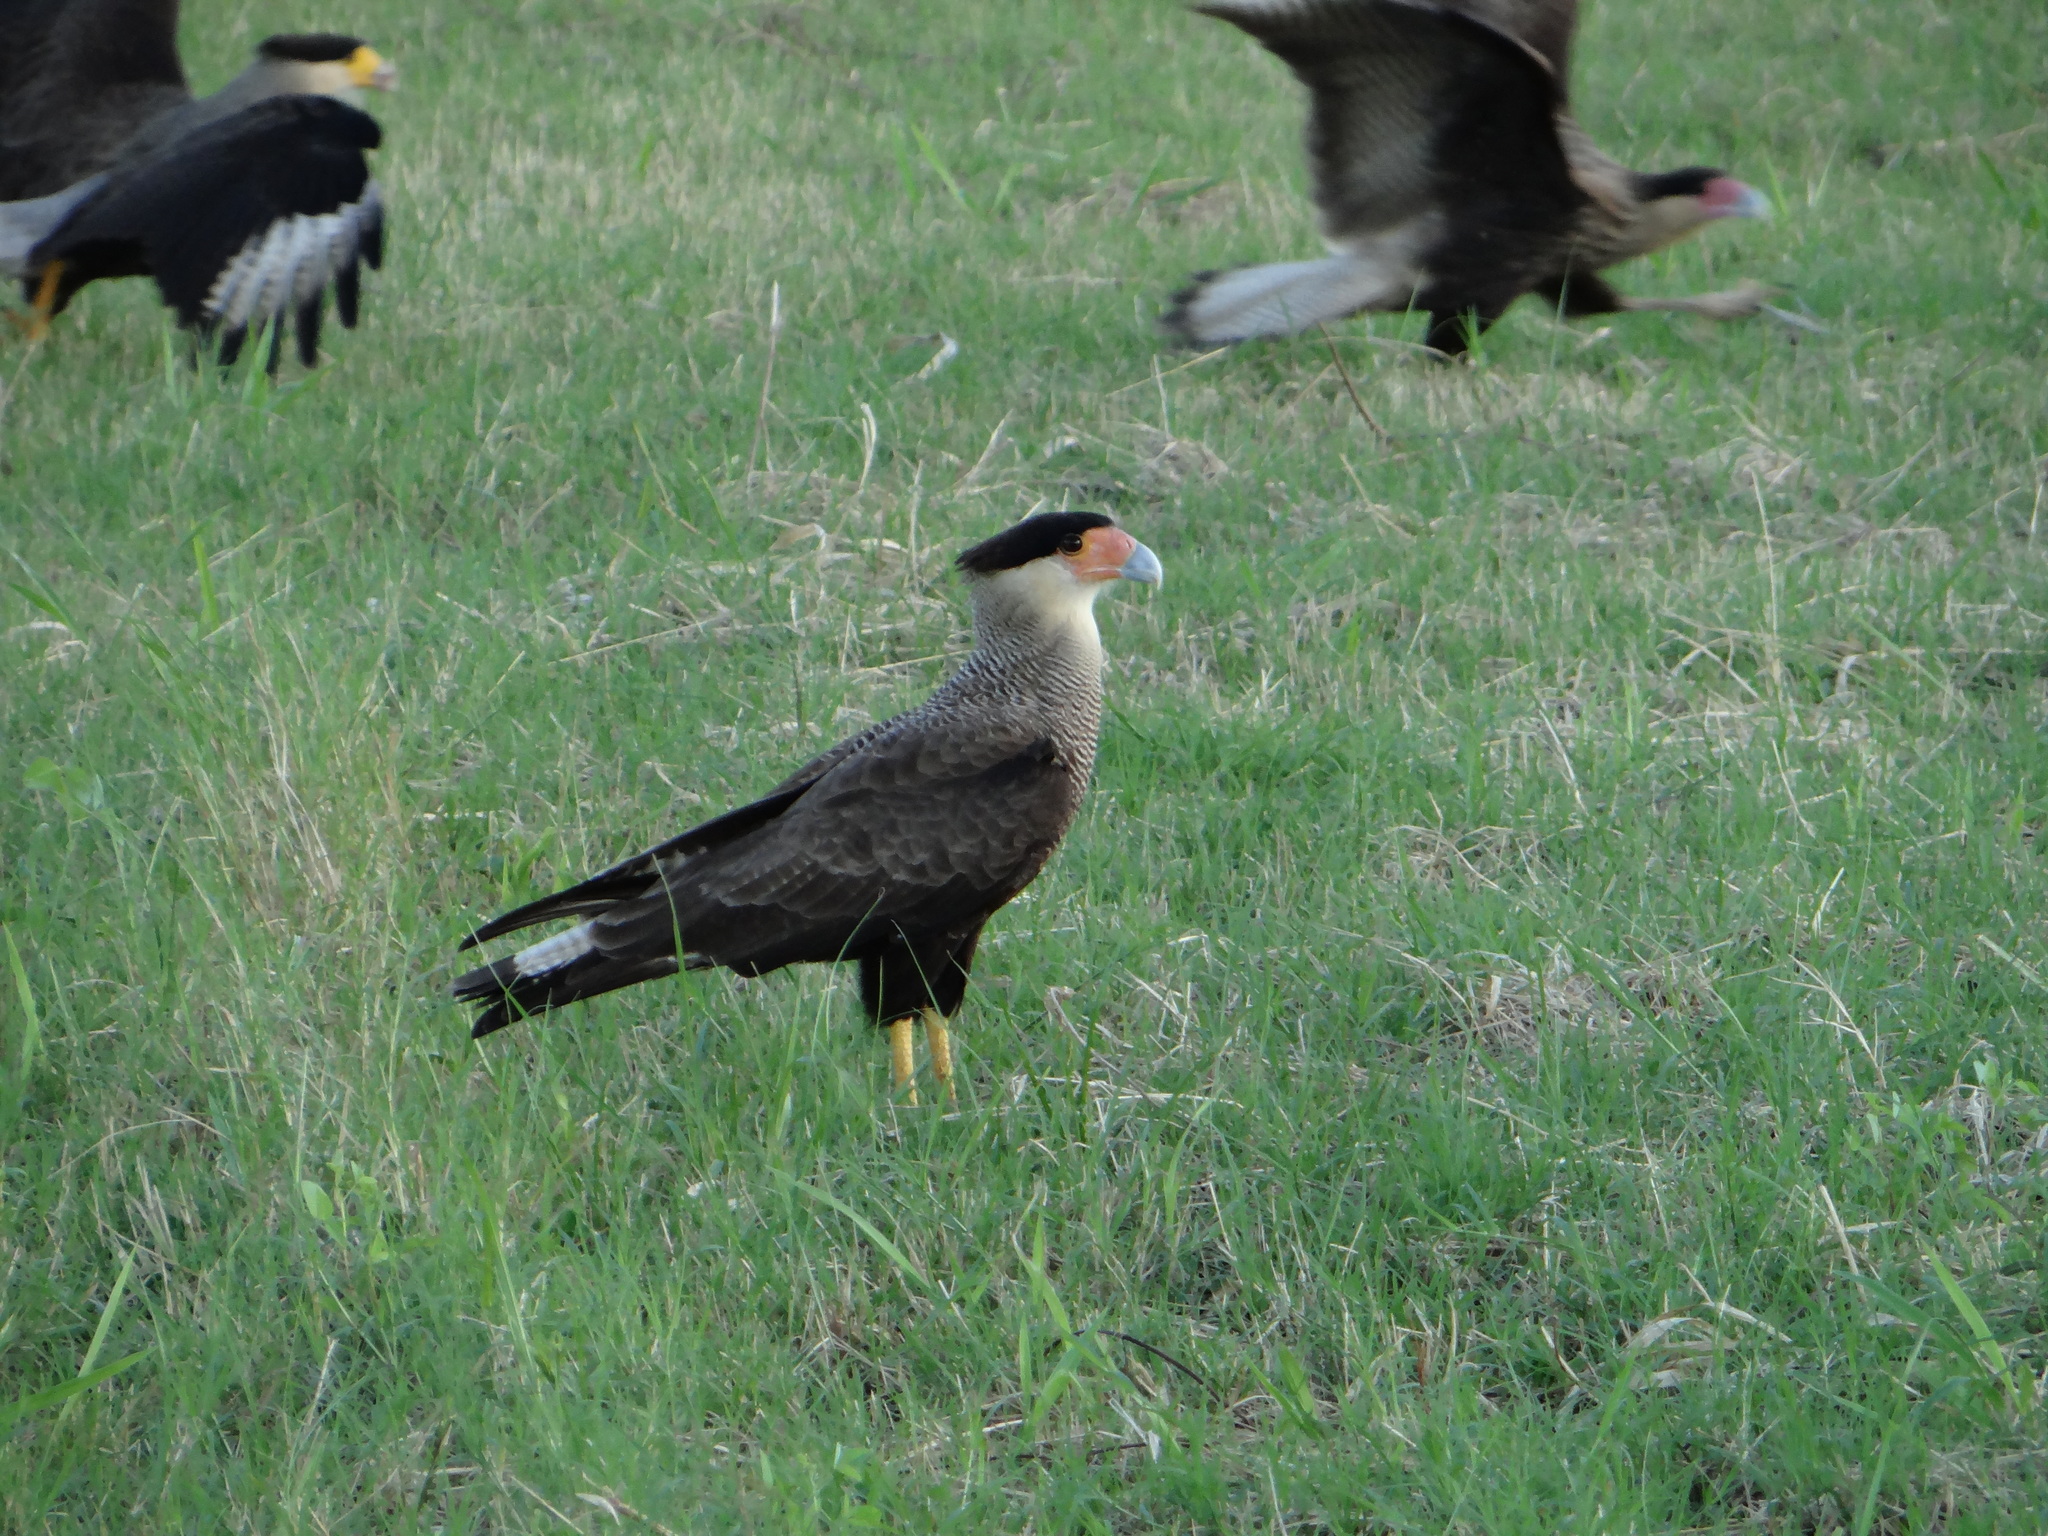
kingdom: Animalia
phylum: Chordata
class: Aves
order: Falconiformes
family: Falconidae
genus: Caracara
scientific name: Caracara plancus
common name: Southern caracara
